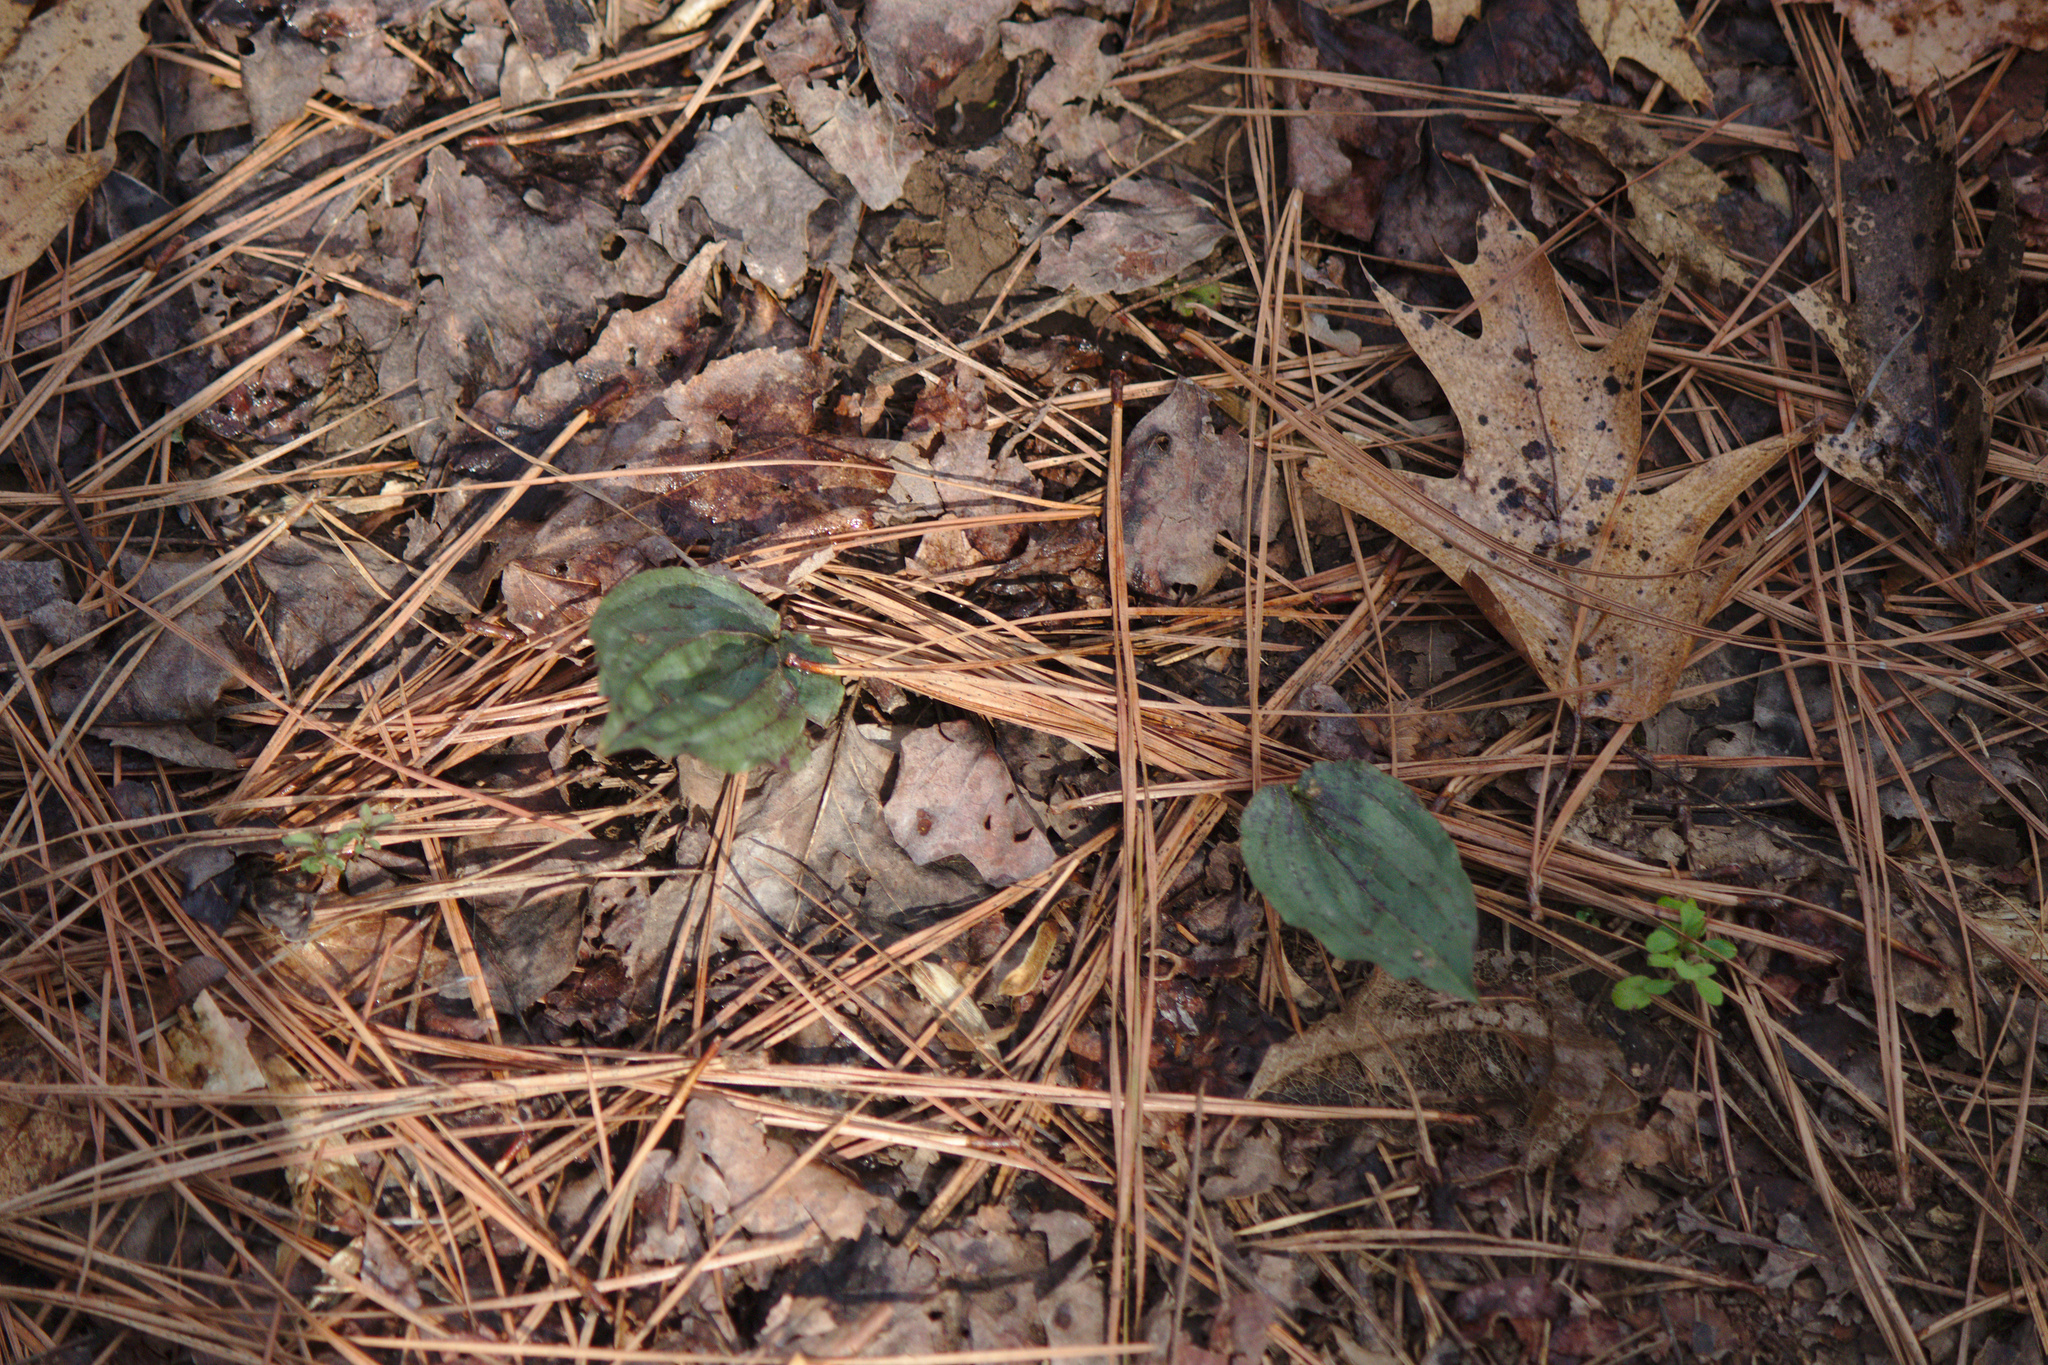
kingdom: Plantae
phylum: Tracheophyta
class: Liliopsida
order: Asparagales
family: Orchidaceae
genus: Tipularia
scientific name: Tipularia discolor
